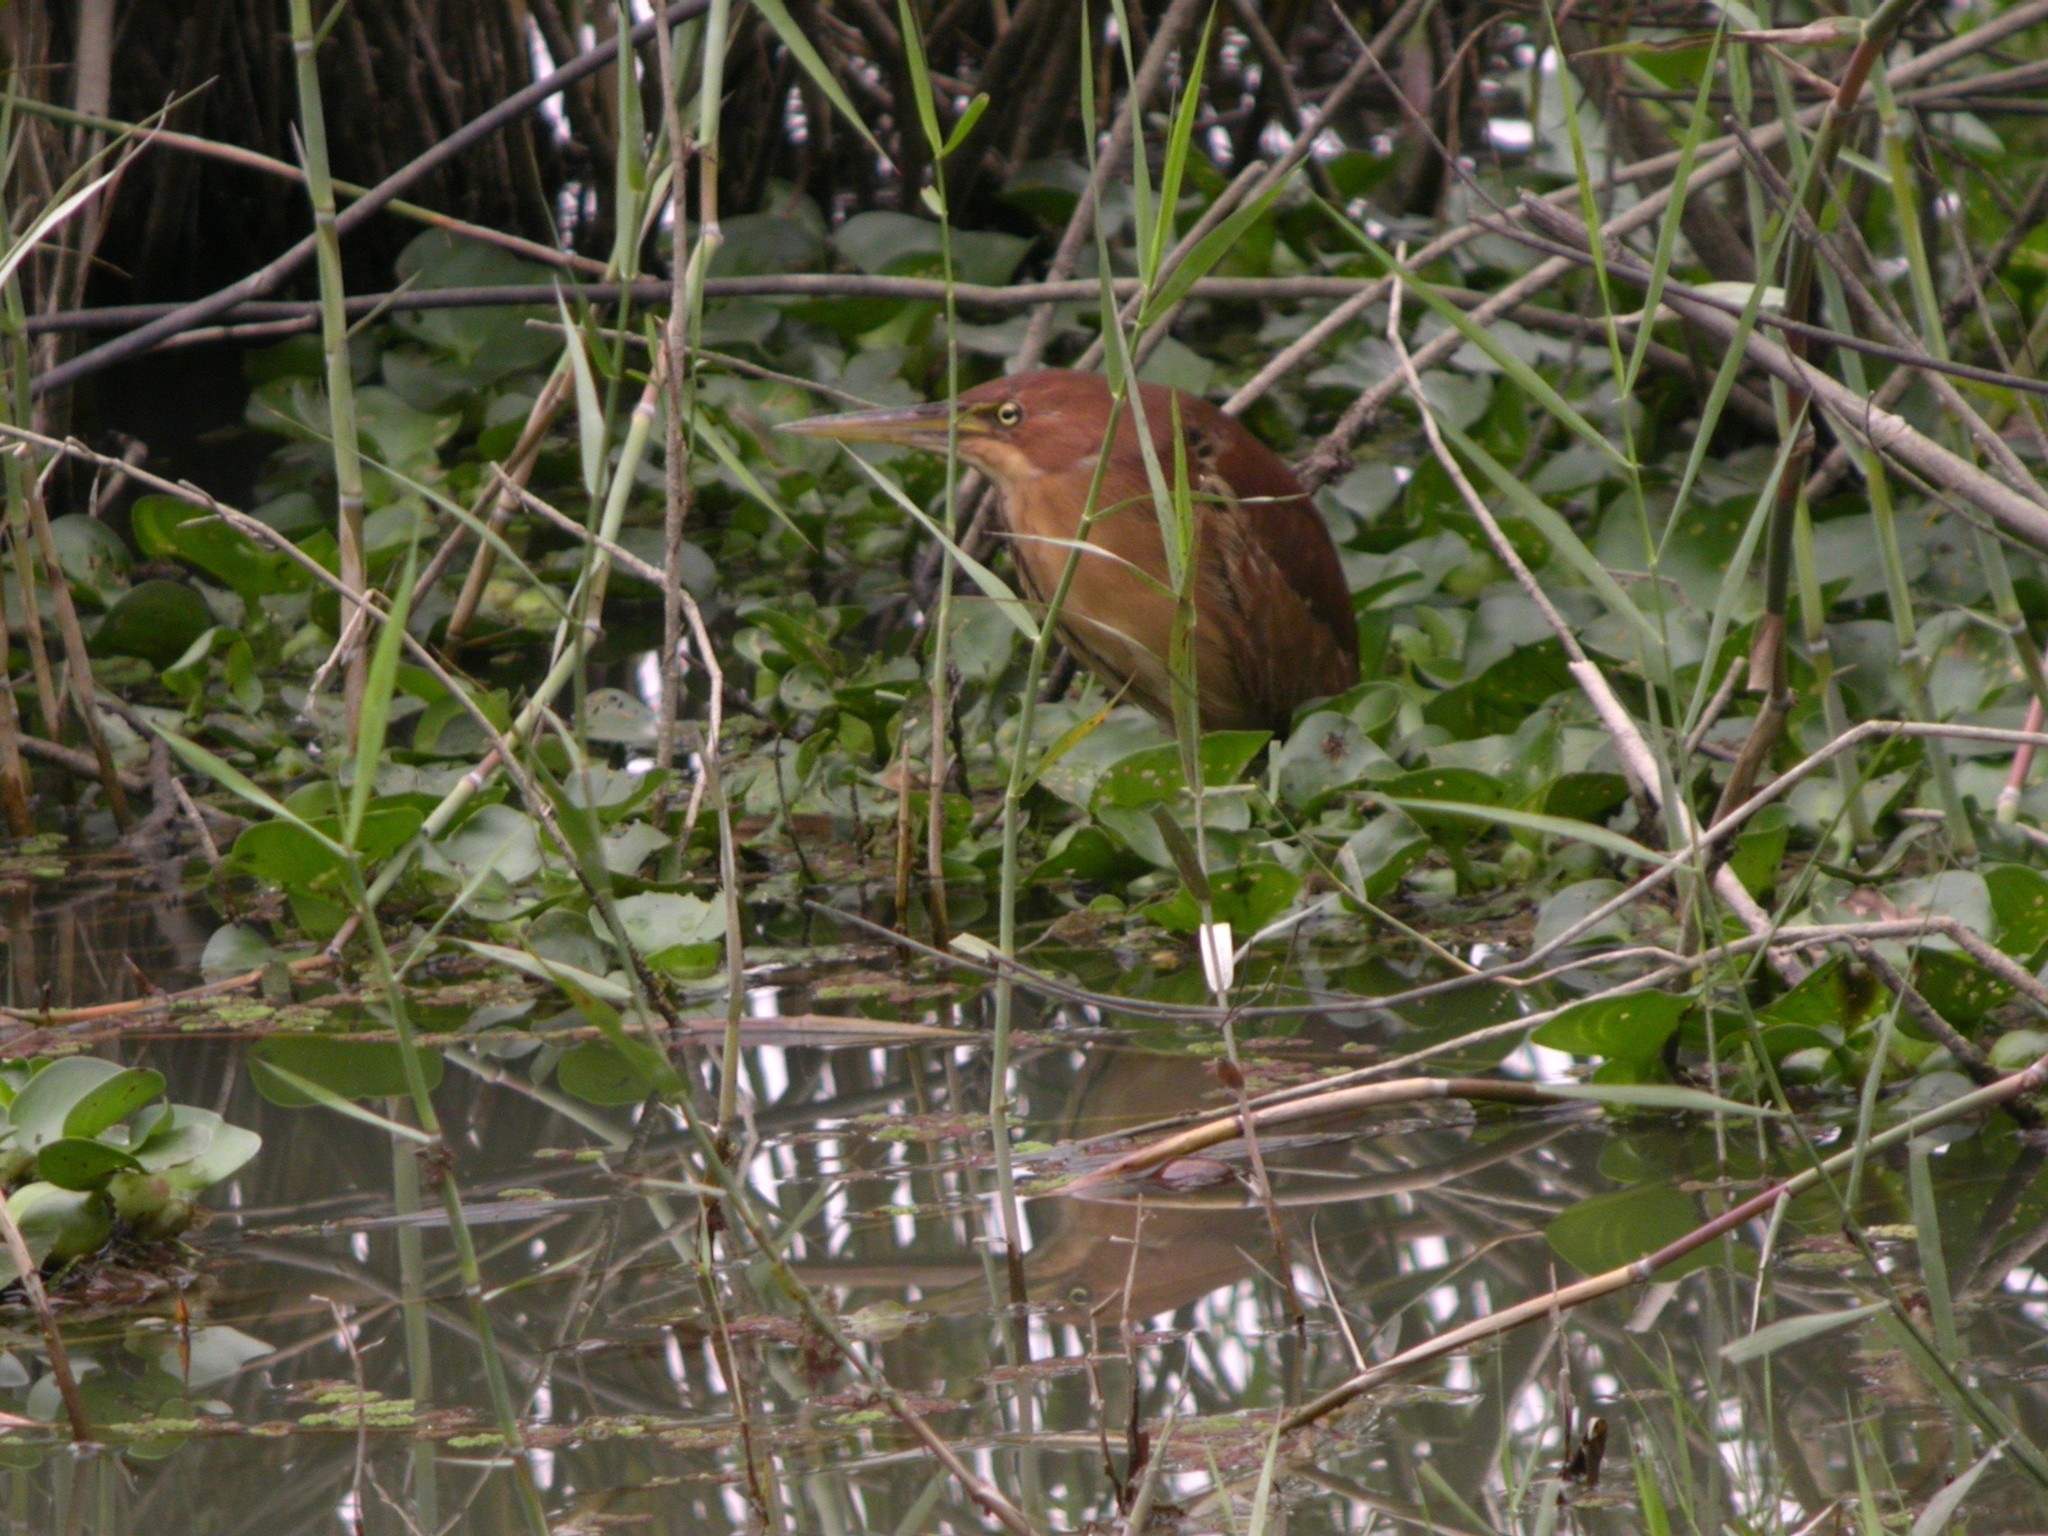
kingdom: Animalia
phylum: Chordata
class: Aves
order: Pelecaniformes
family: Ardeidae
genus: Ixobrychus
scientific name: Ixobrychus cinnamomeus
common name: Cinnamon bittern
